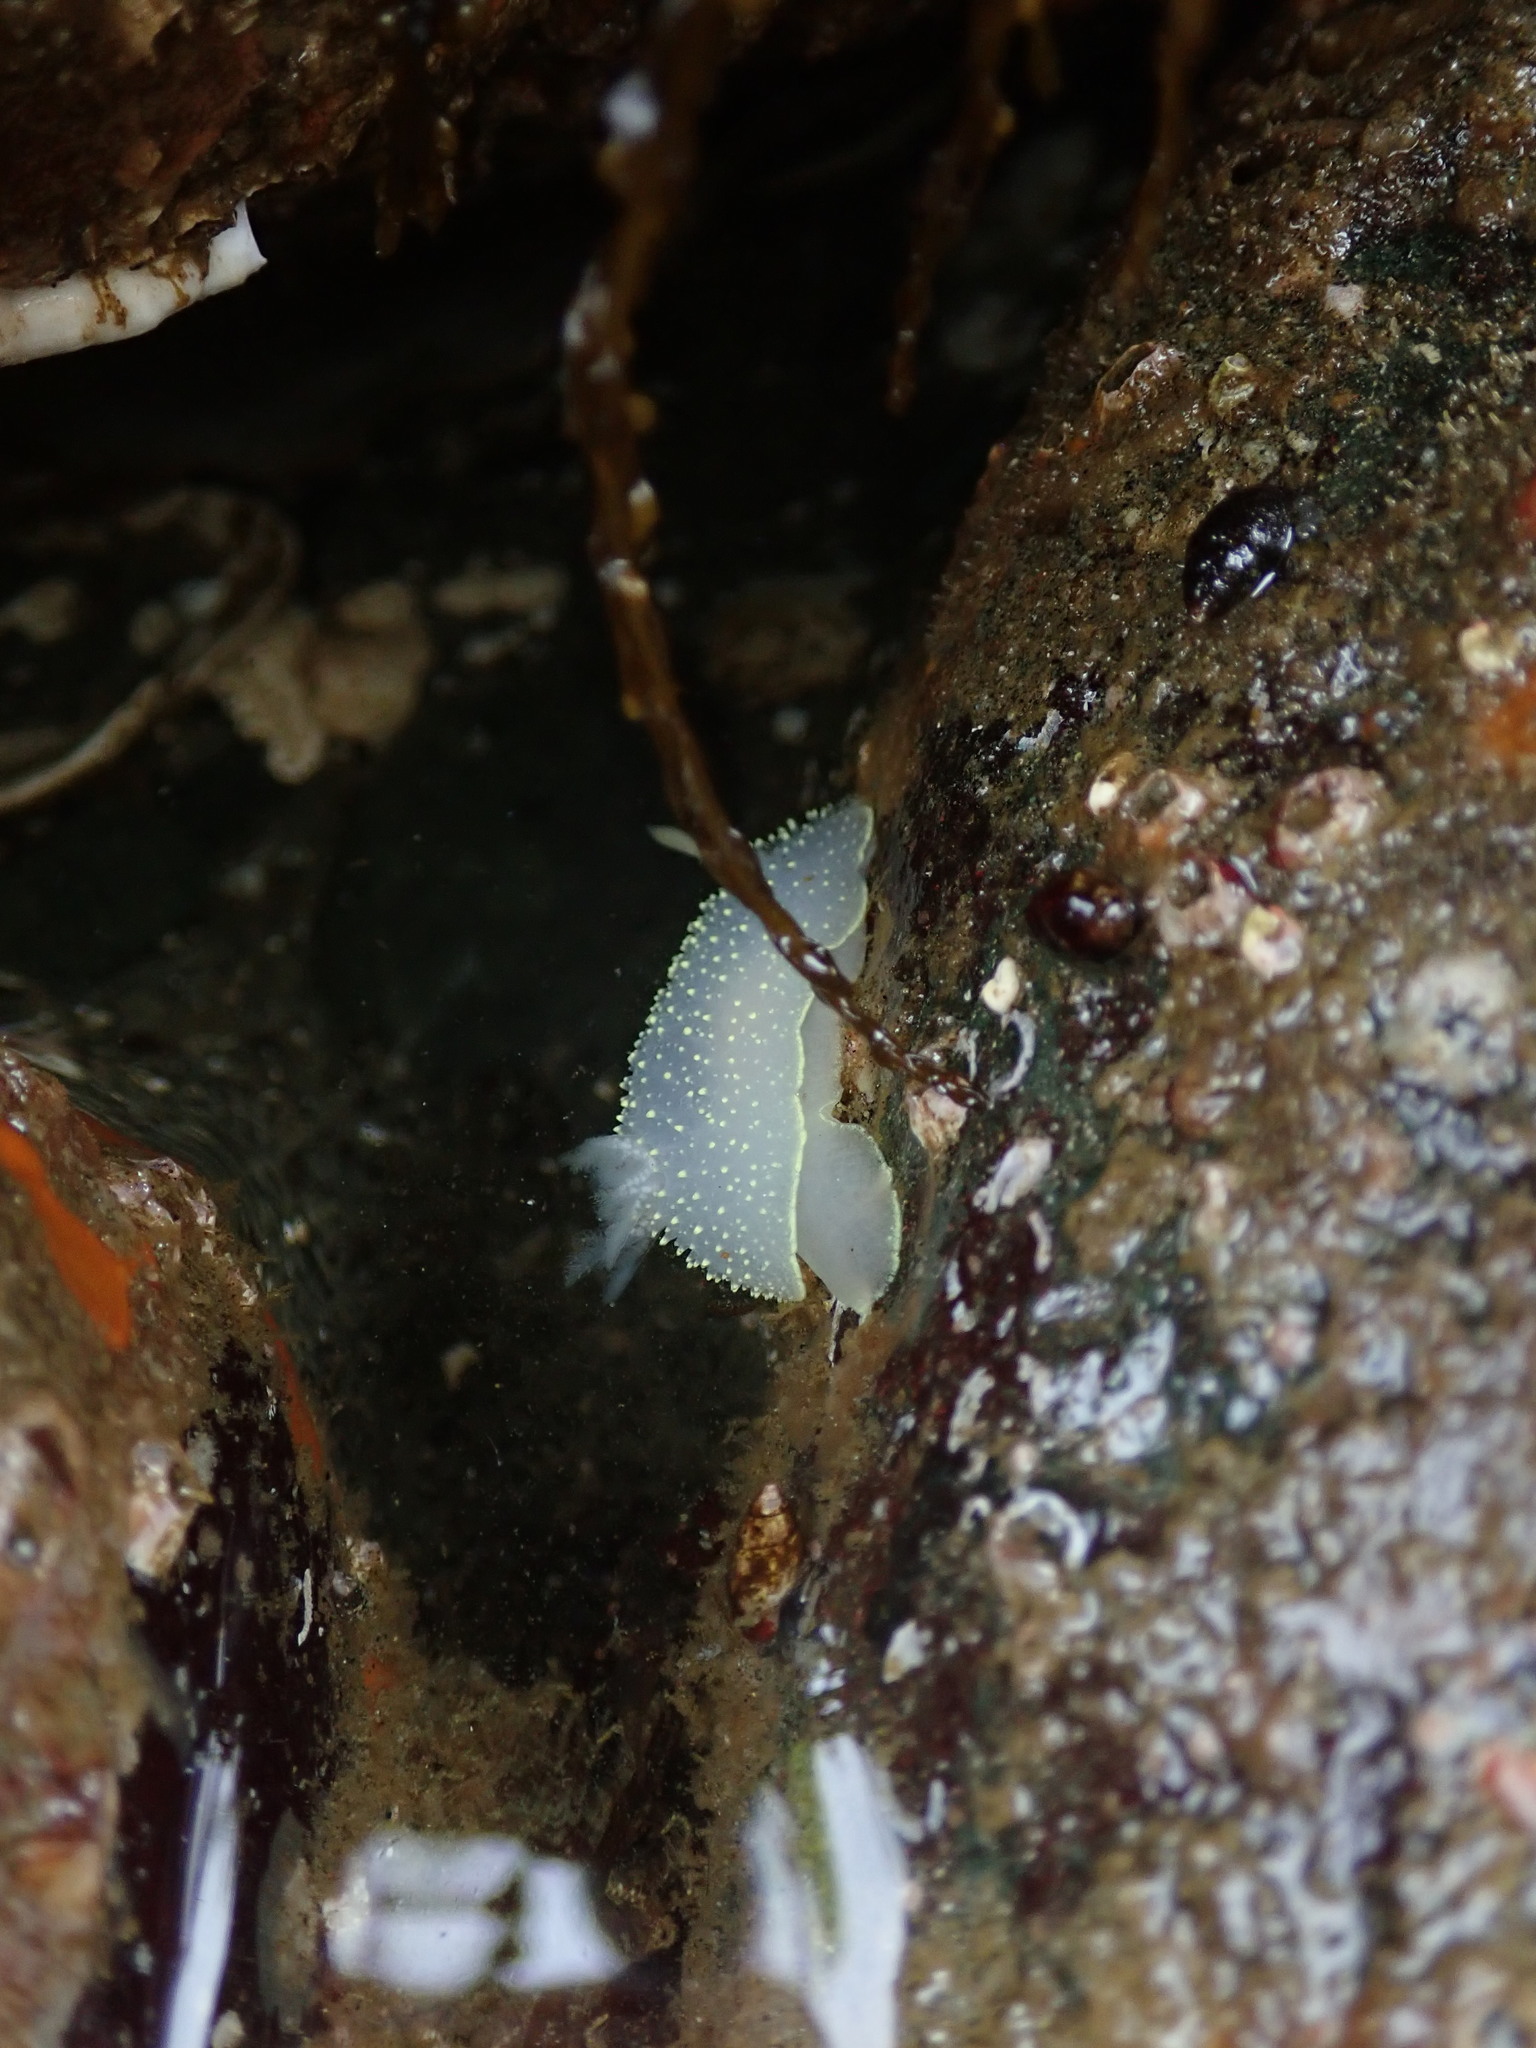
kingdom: Animalia
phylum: Mollusca
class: Gastropoda
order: Nudibranchia
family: Onchidorididae
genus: Acanthodoris
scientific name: Acanthodoris hudsoni
